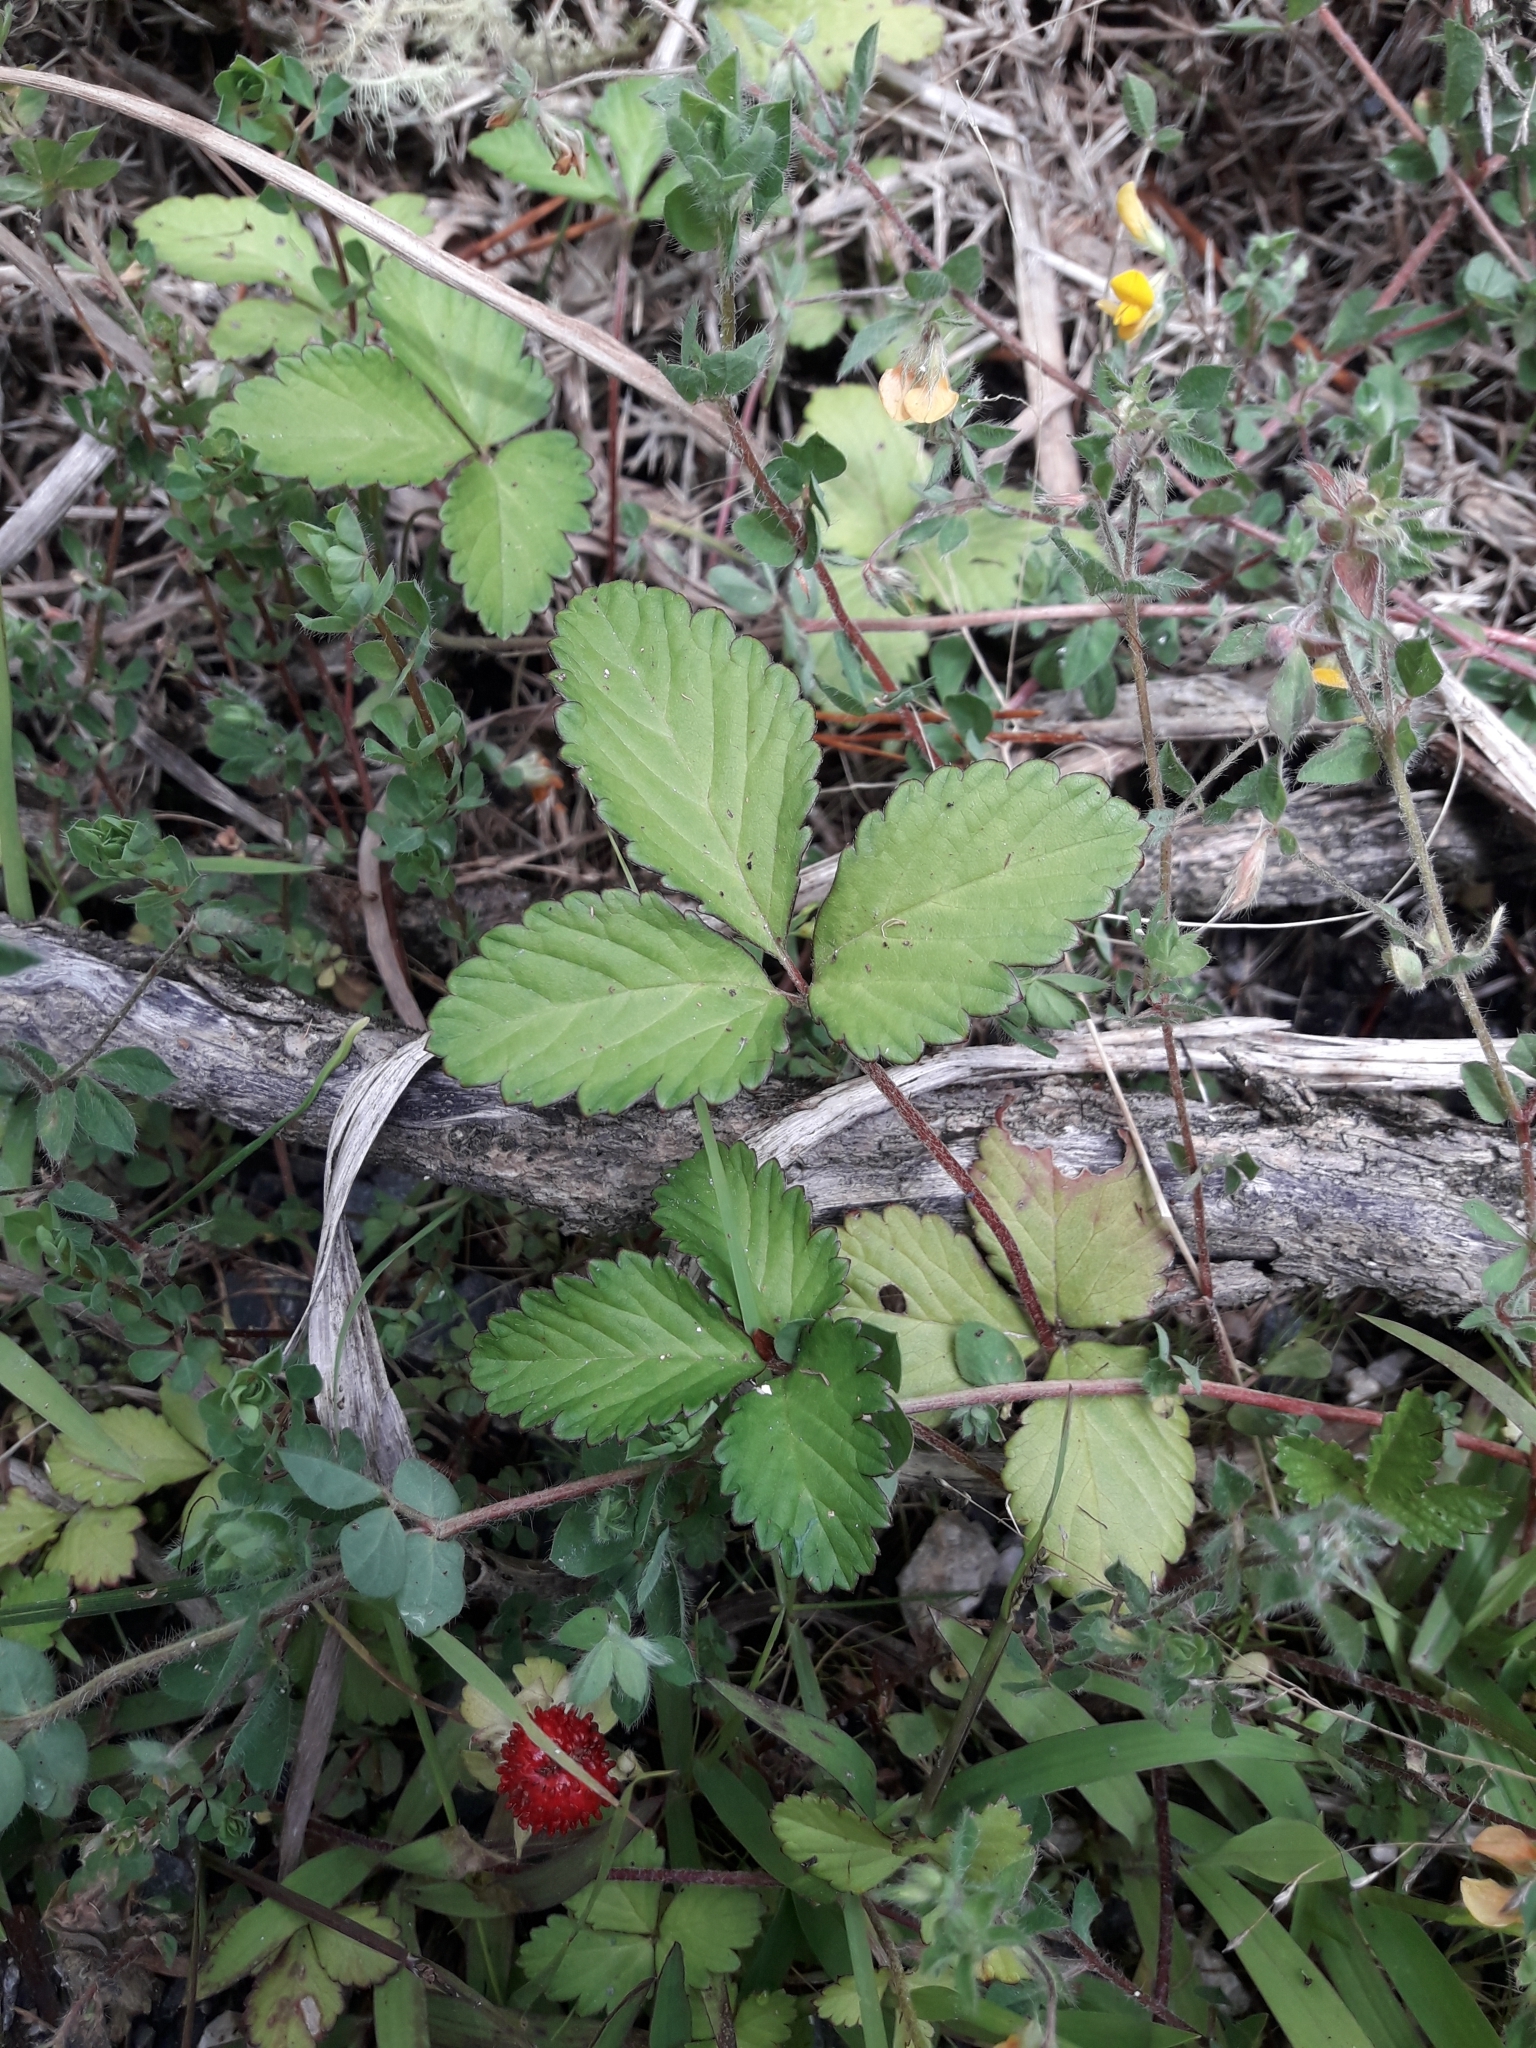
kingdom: Plantae
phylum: Tracheophyta
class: Magnoliopsida
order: Rosales
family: Rosaceae
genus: Potentilla
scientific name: Potentilla indica
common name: Yellow-flowered strawberry
